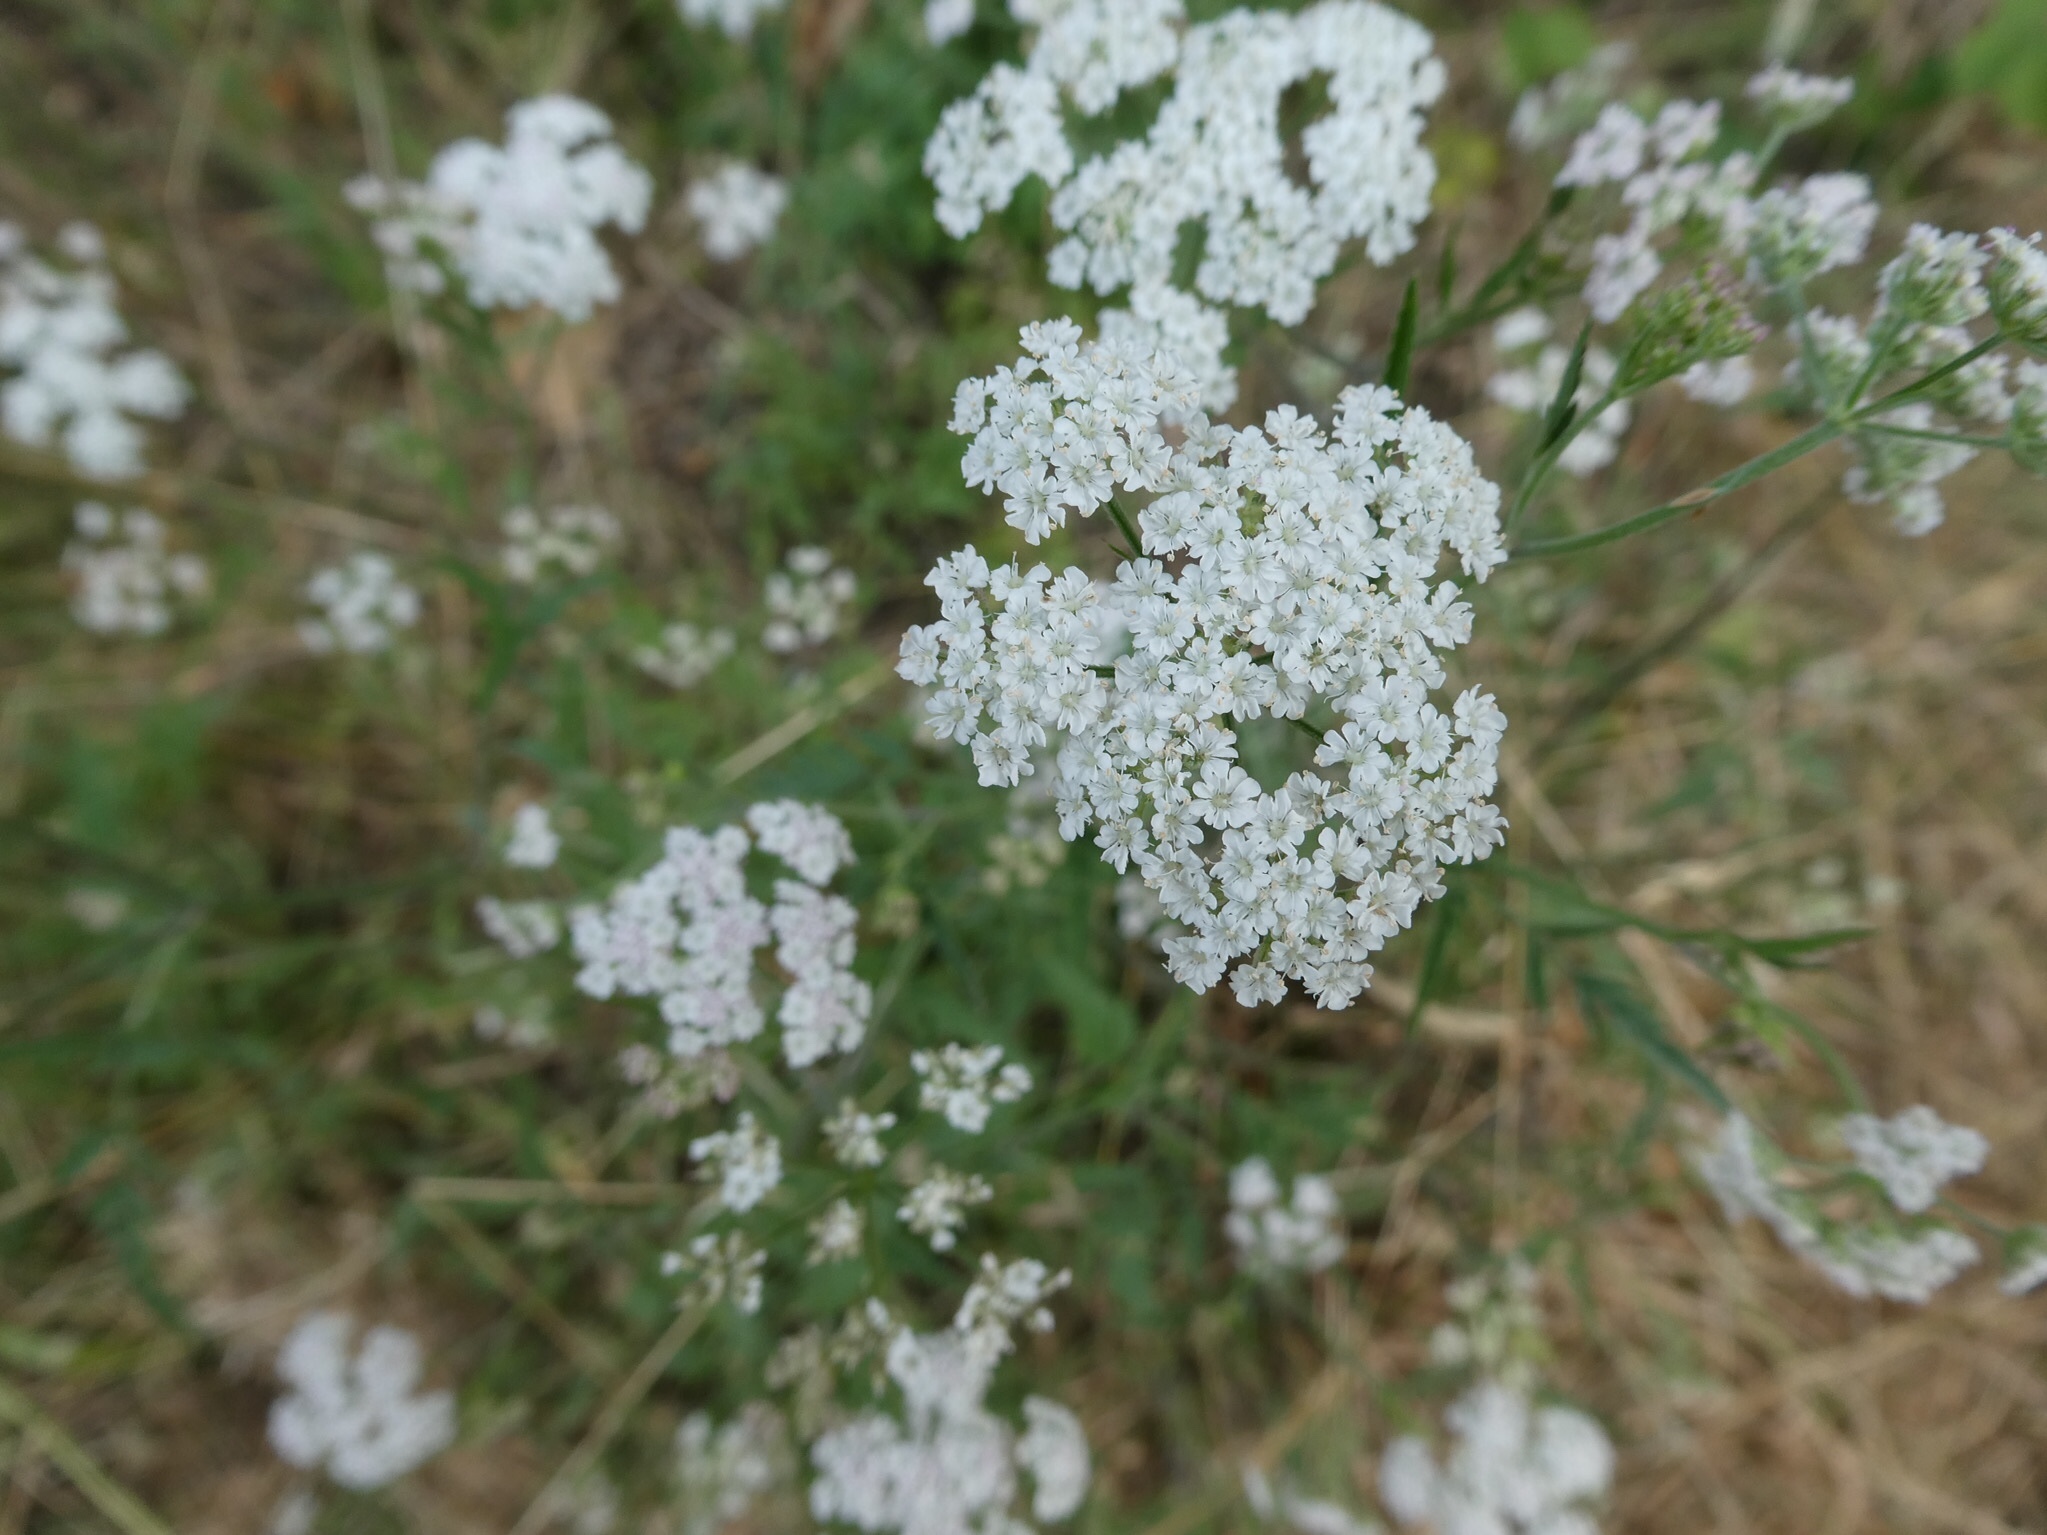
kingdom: Plantae
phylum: Tracheophyta
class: Magnoliopsida
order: Apiales
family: Apiaceae
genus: Torilis
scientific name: Torilis japonica
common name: Upright hedge-parsley
